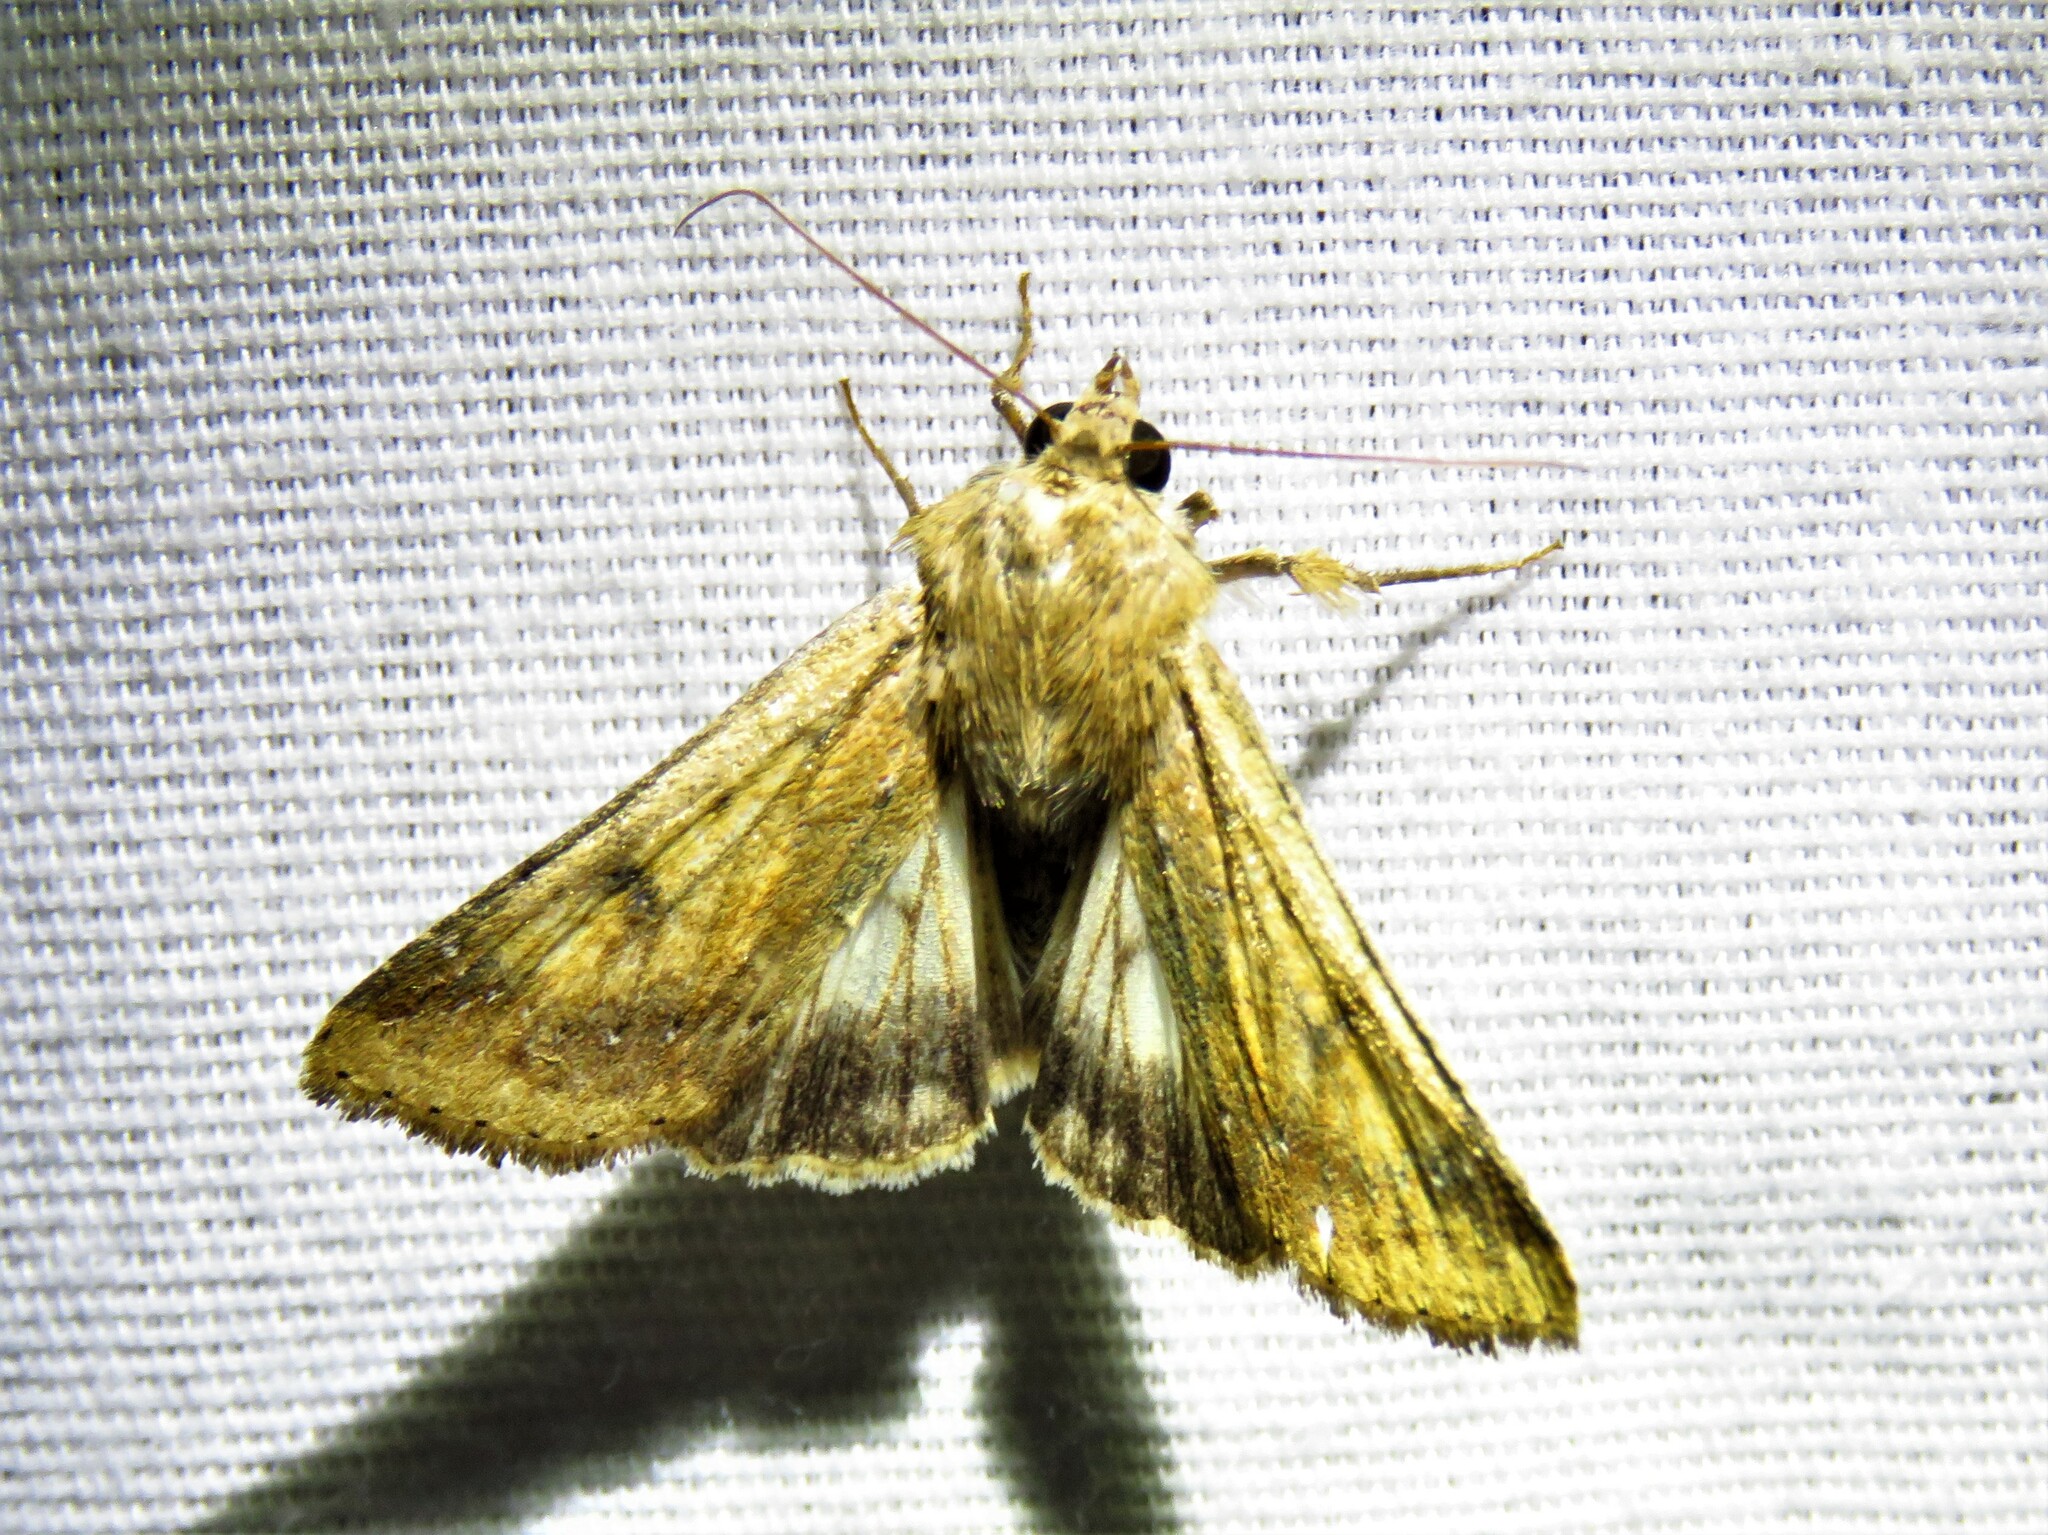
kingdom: Animalia
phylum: Arthropoda
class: Insecta
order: Lepidoptera
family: Noctuidae
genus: Helicoverpa
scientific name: Helicoverpa zea
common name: Bollworm
